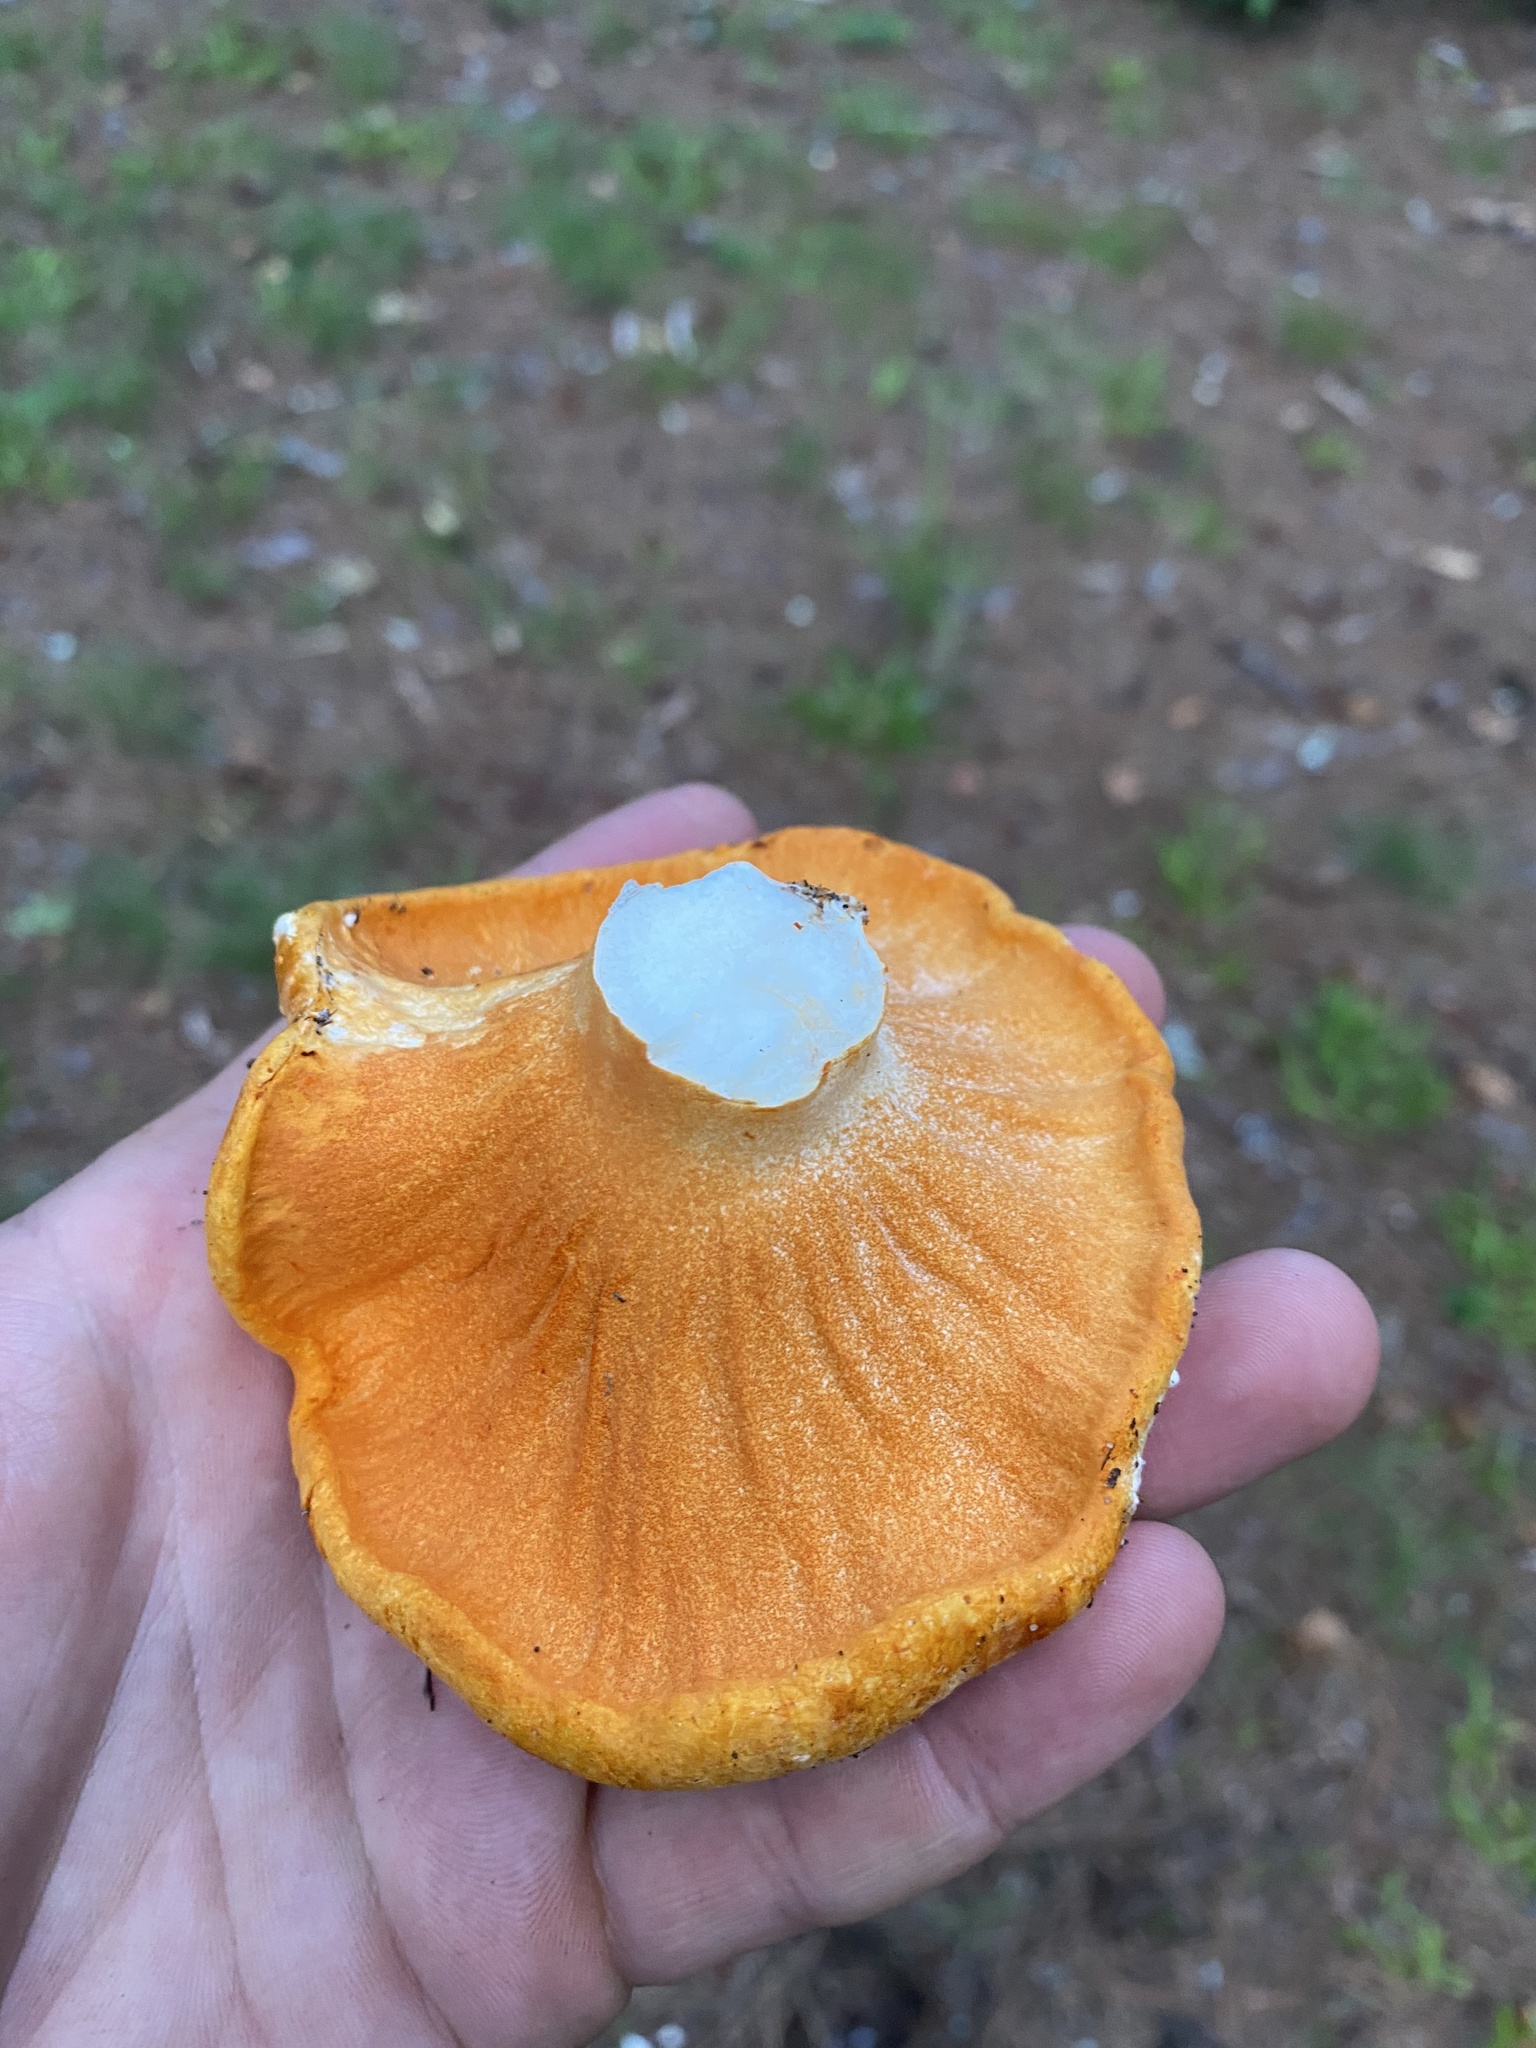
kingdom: Fungi
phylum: Ascomycota
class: Sordariomycetes
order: Hypocreales
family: Hypocreaceae
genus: Hypomyces
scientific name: Hypomyces lactifluorum
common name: Lobster mushroom
